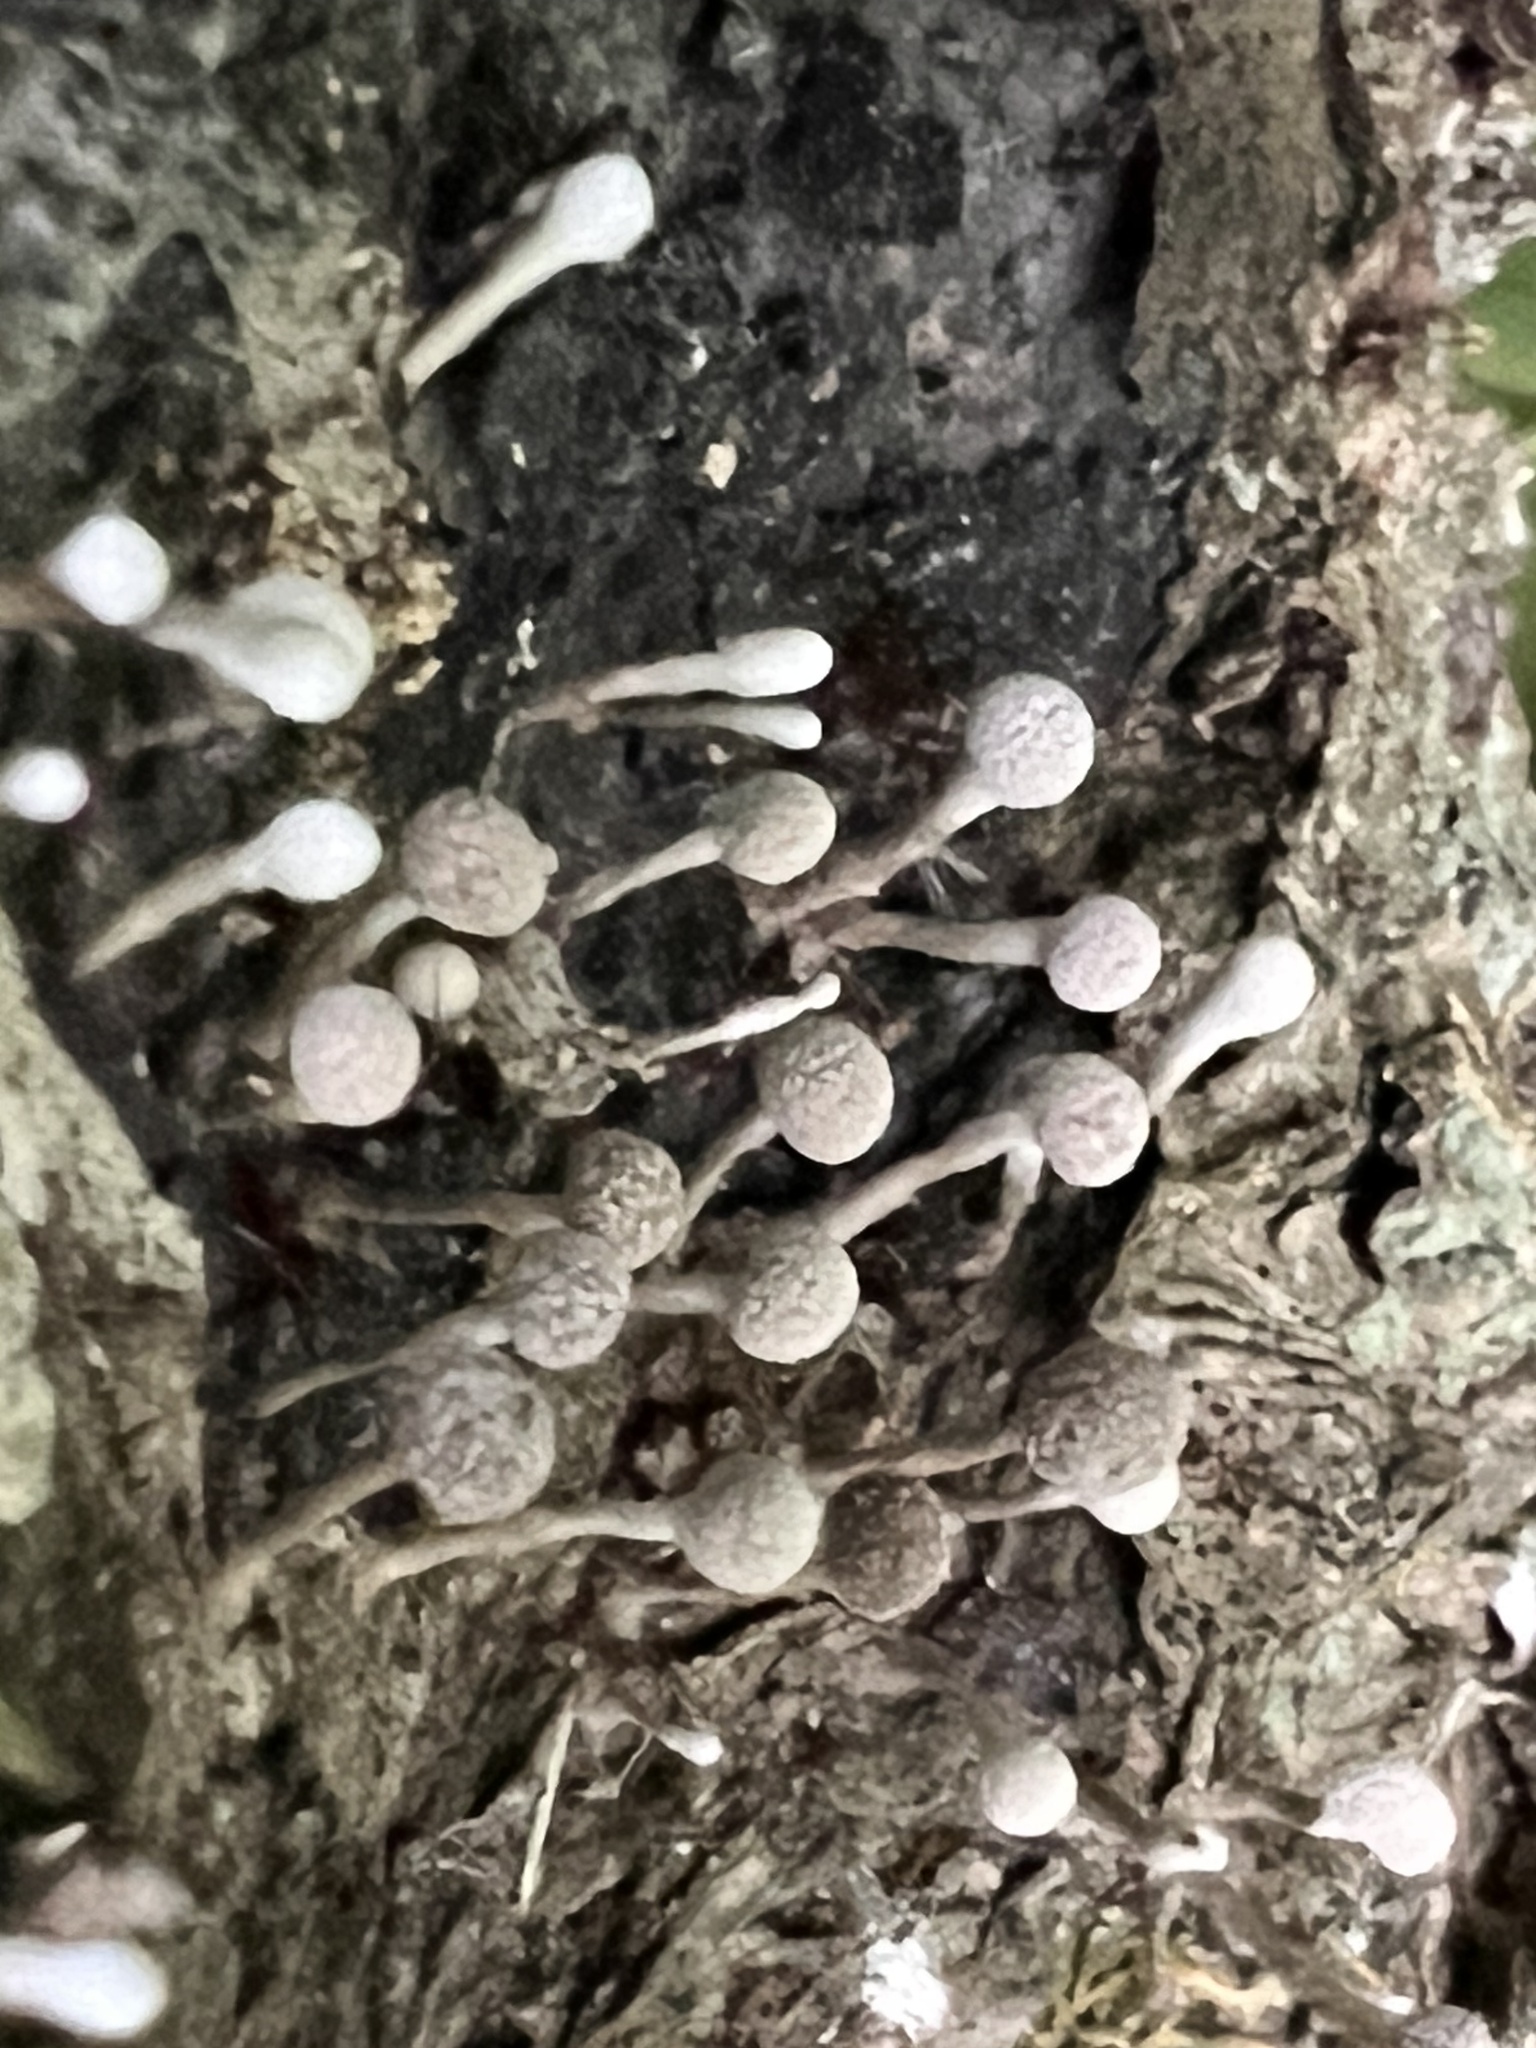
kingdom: Fungi
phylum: Basidiomycota
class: Atractiellomycetes
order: Atractiellales
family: Phleogenaceae
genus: Phleogena
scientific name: Phleogena faginea
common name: Fenugreek stalkball
